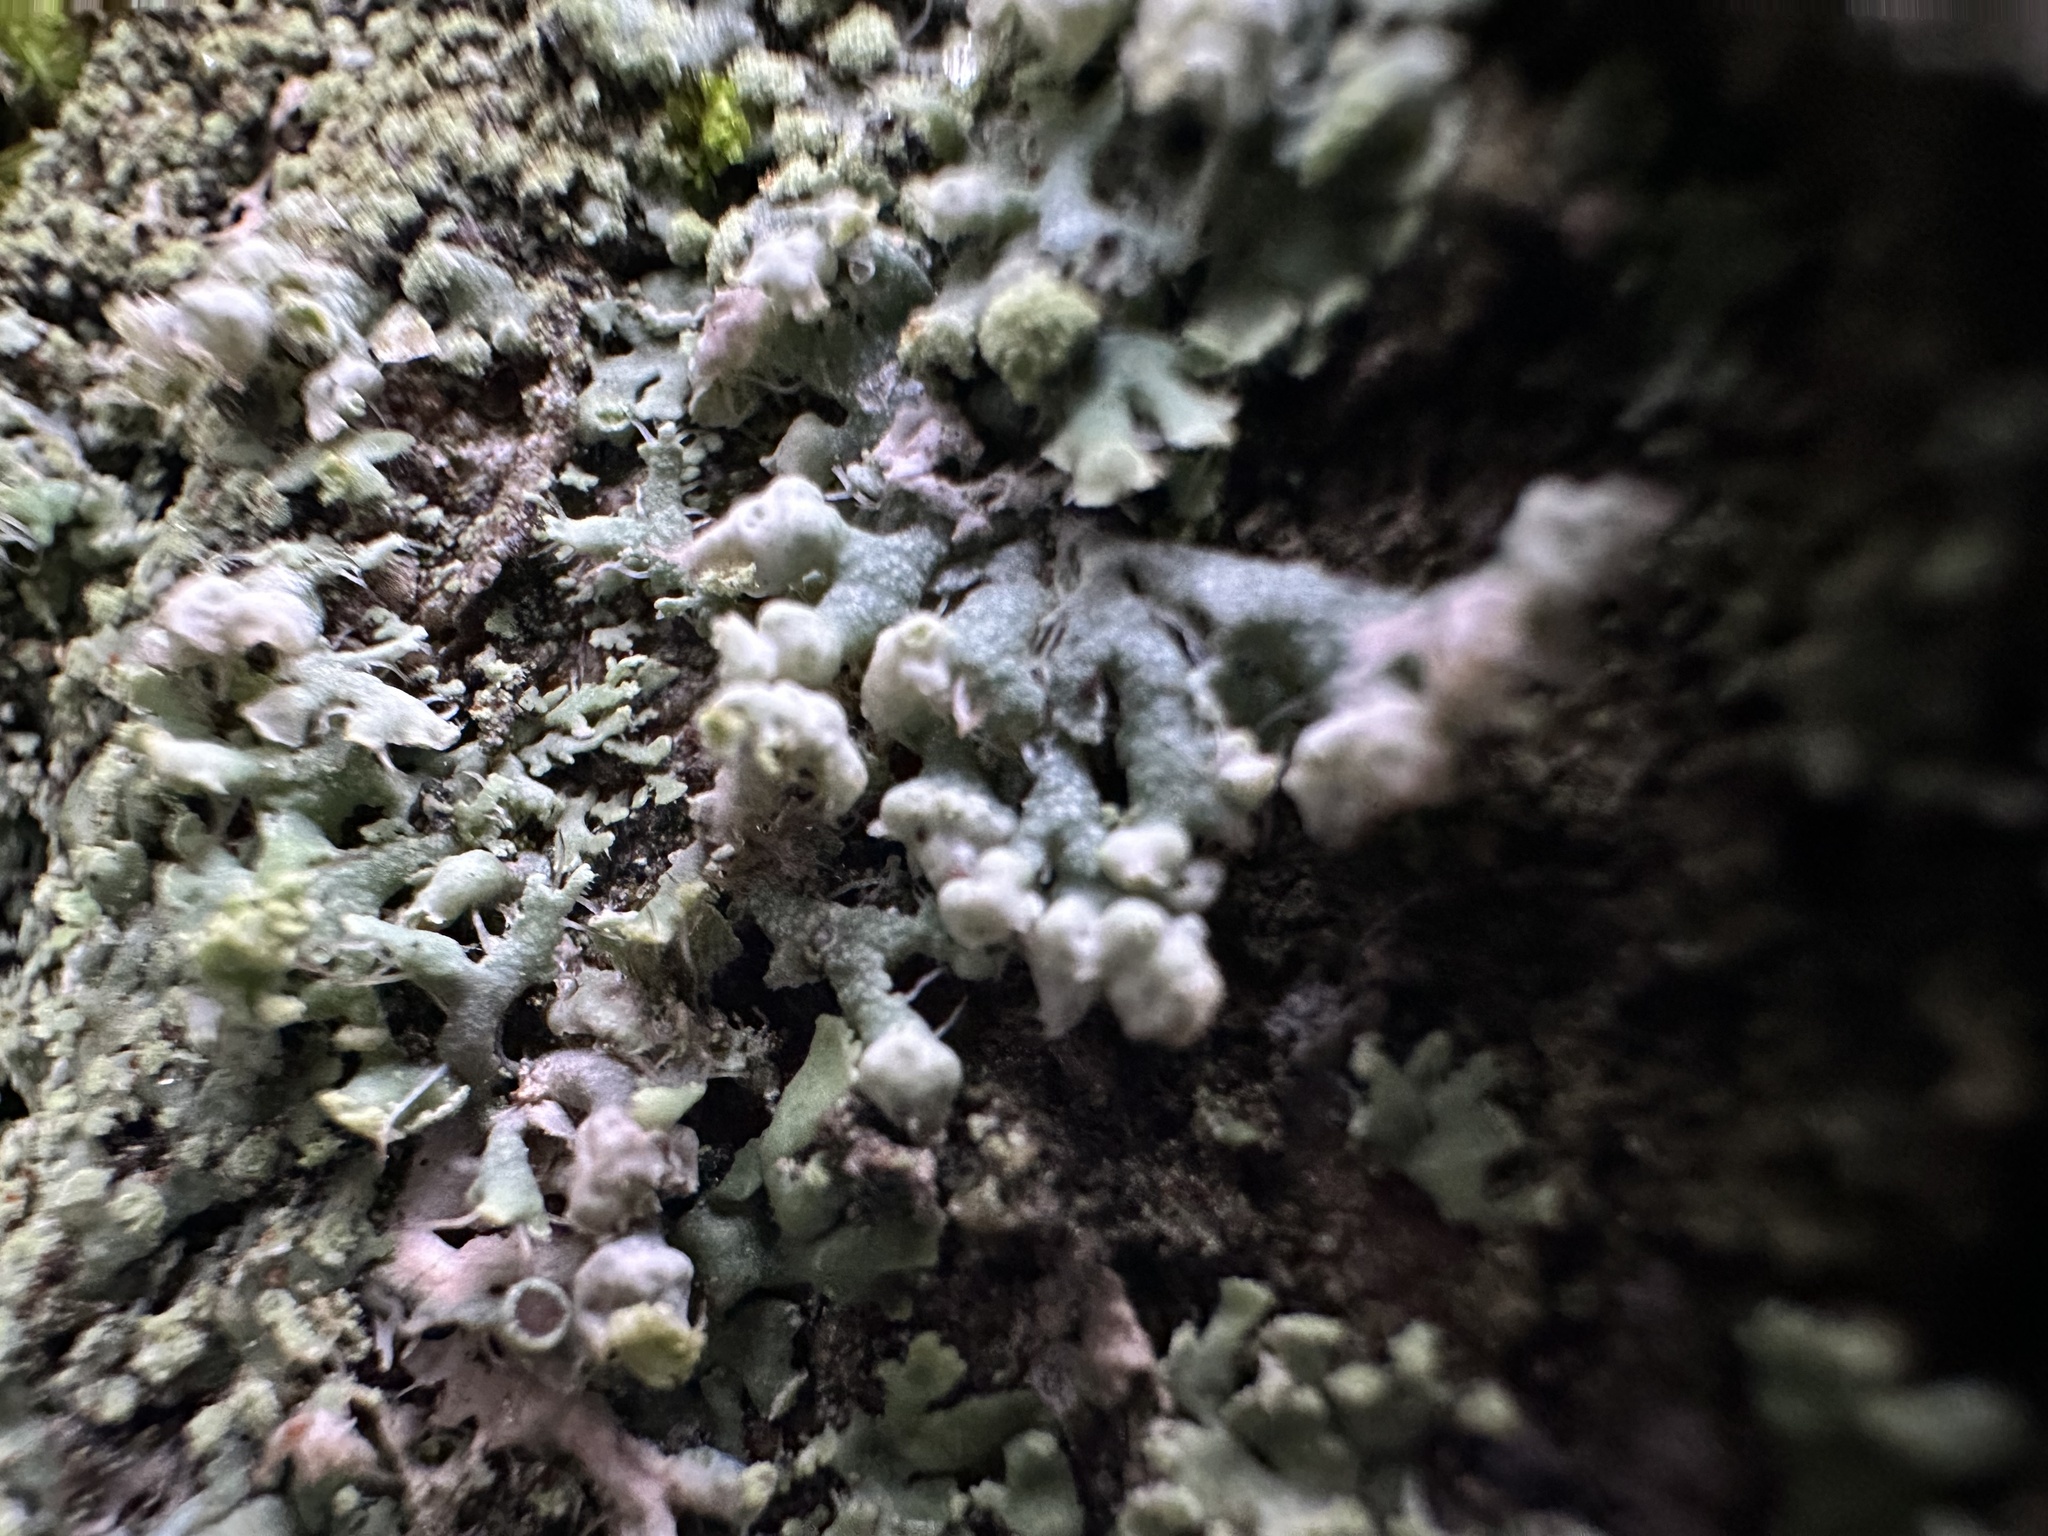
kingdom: Fungi
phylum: Ascomycota
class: Lecanoromycetes
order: Caliciales
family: Physciaceae
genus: Physcia
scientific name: Physcia adscendens
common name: Hooded rosette lichen
